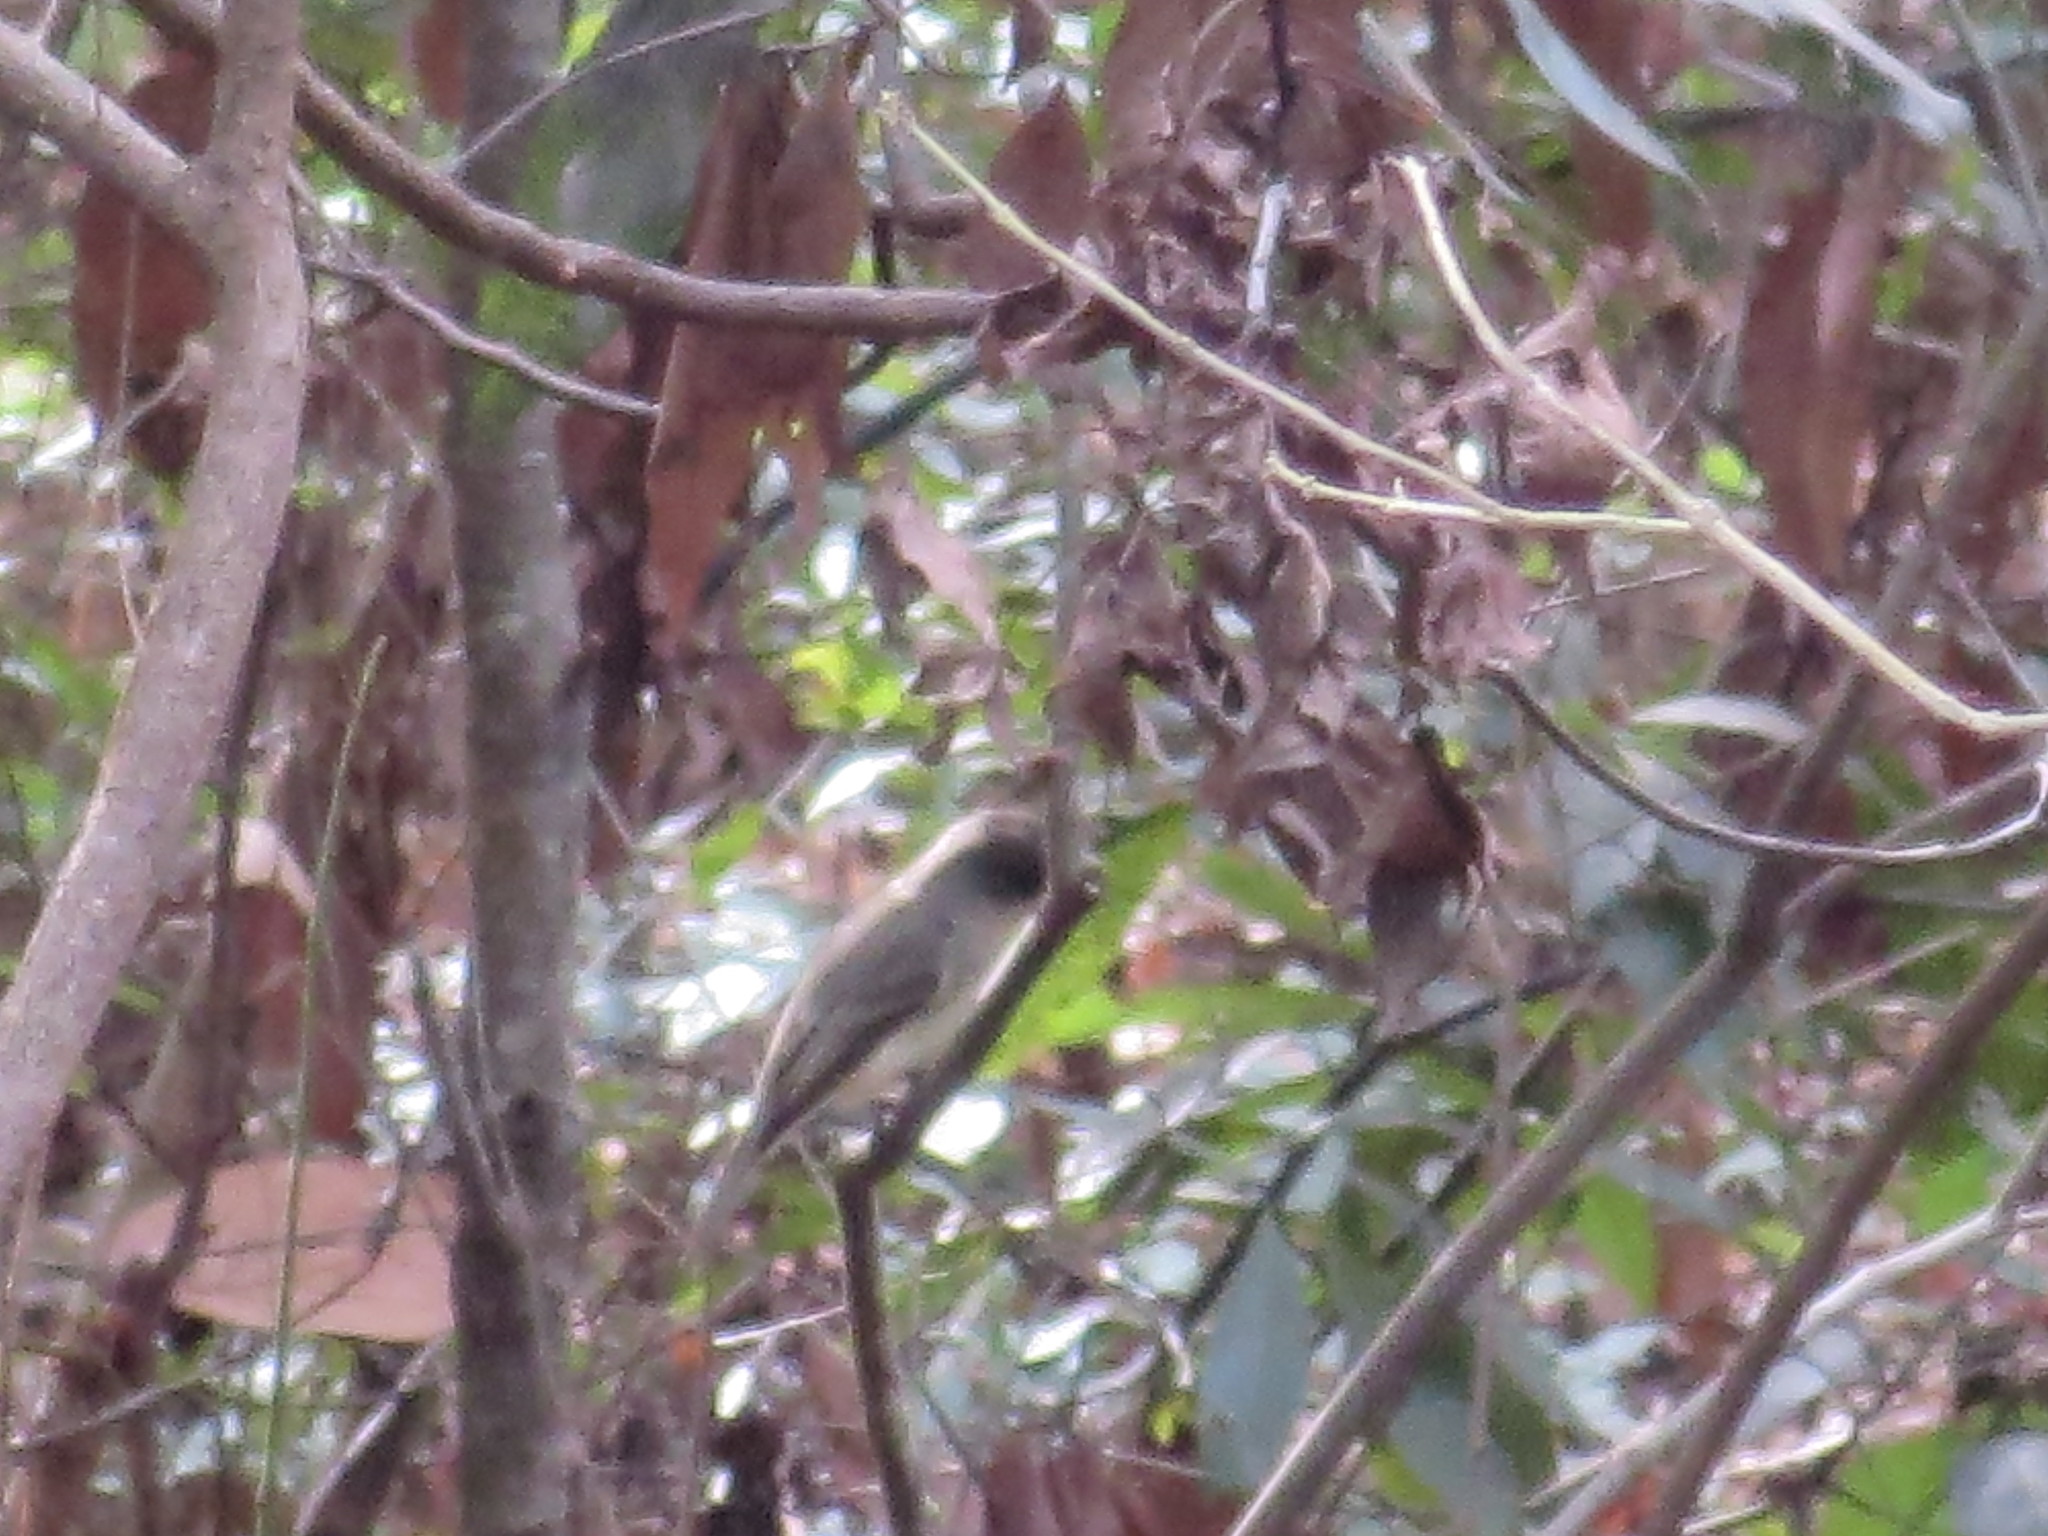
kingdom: Animalia
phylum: Chordata
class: Aves
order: Passeriformes
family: Tyrannidae
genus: Sayornis
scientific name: Sayornis phoebe
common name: Eastern phoebe
